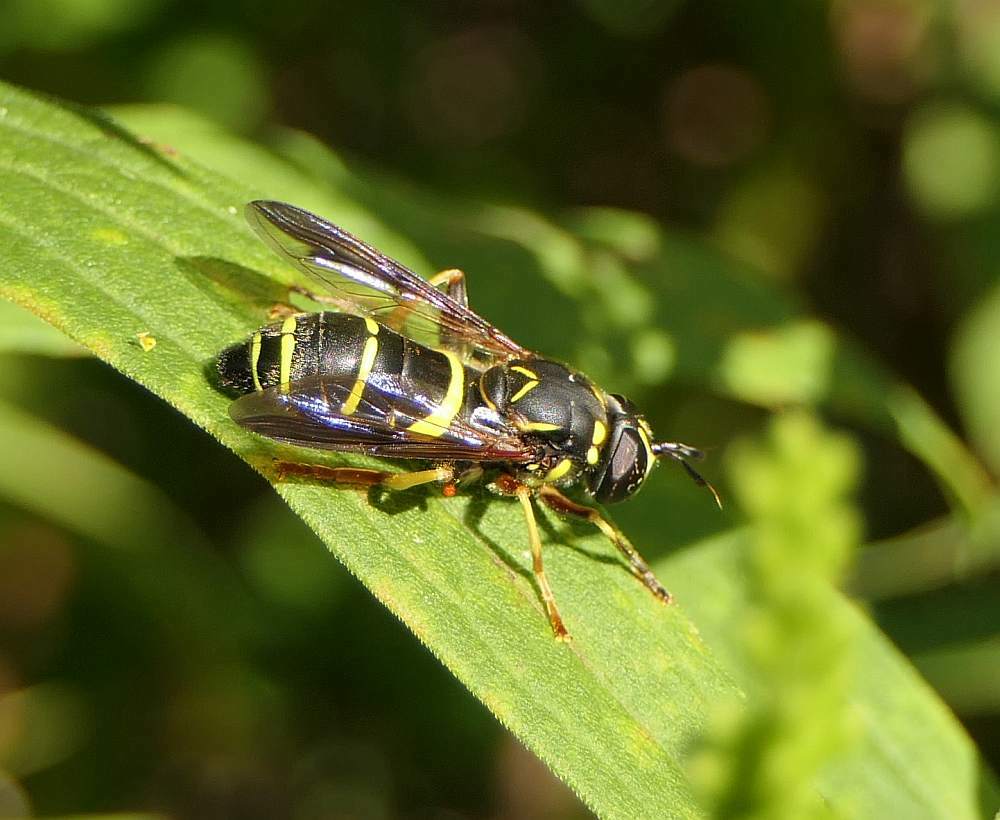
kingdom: Animalia
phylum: Arthropoda
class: Insecta
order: Diptera
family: Syrphidae
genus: Spilomyia
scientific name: Spilomyia sayi
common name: Four-lined hornet fly
